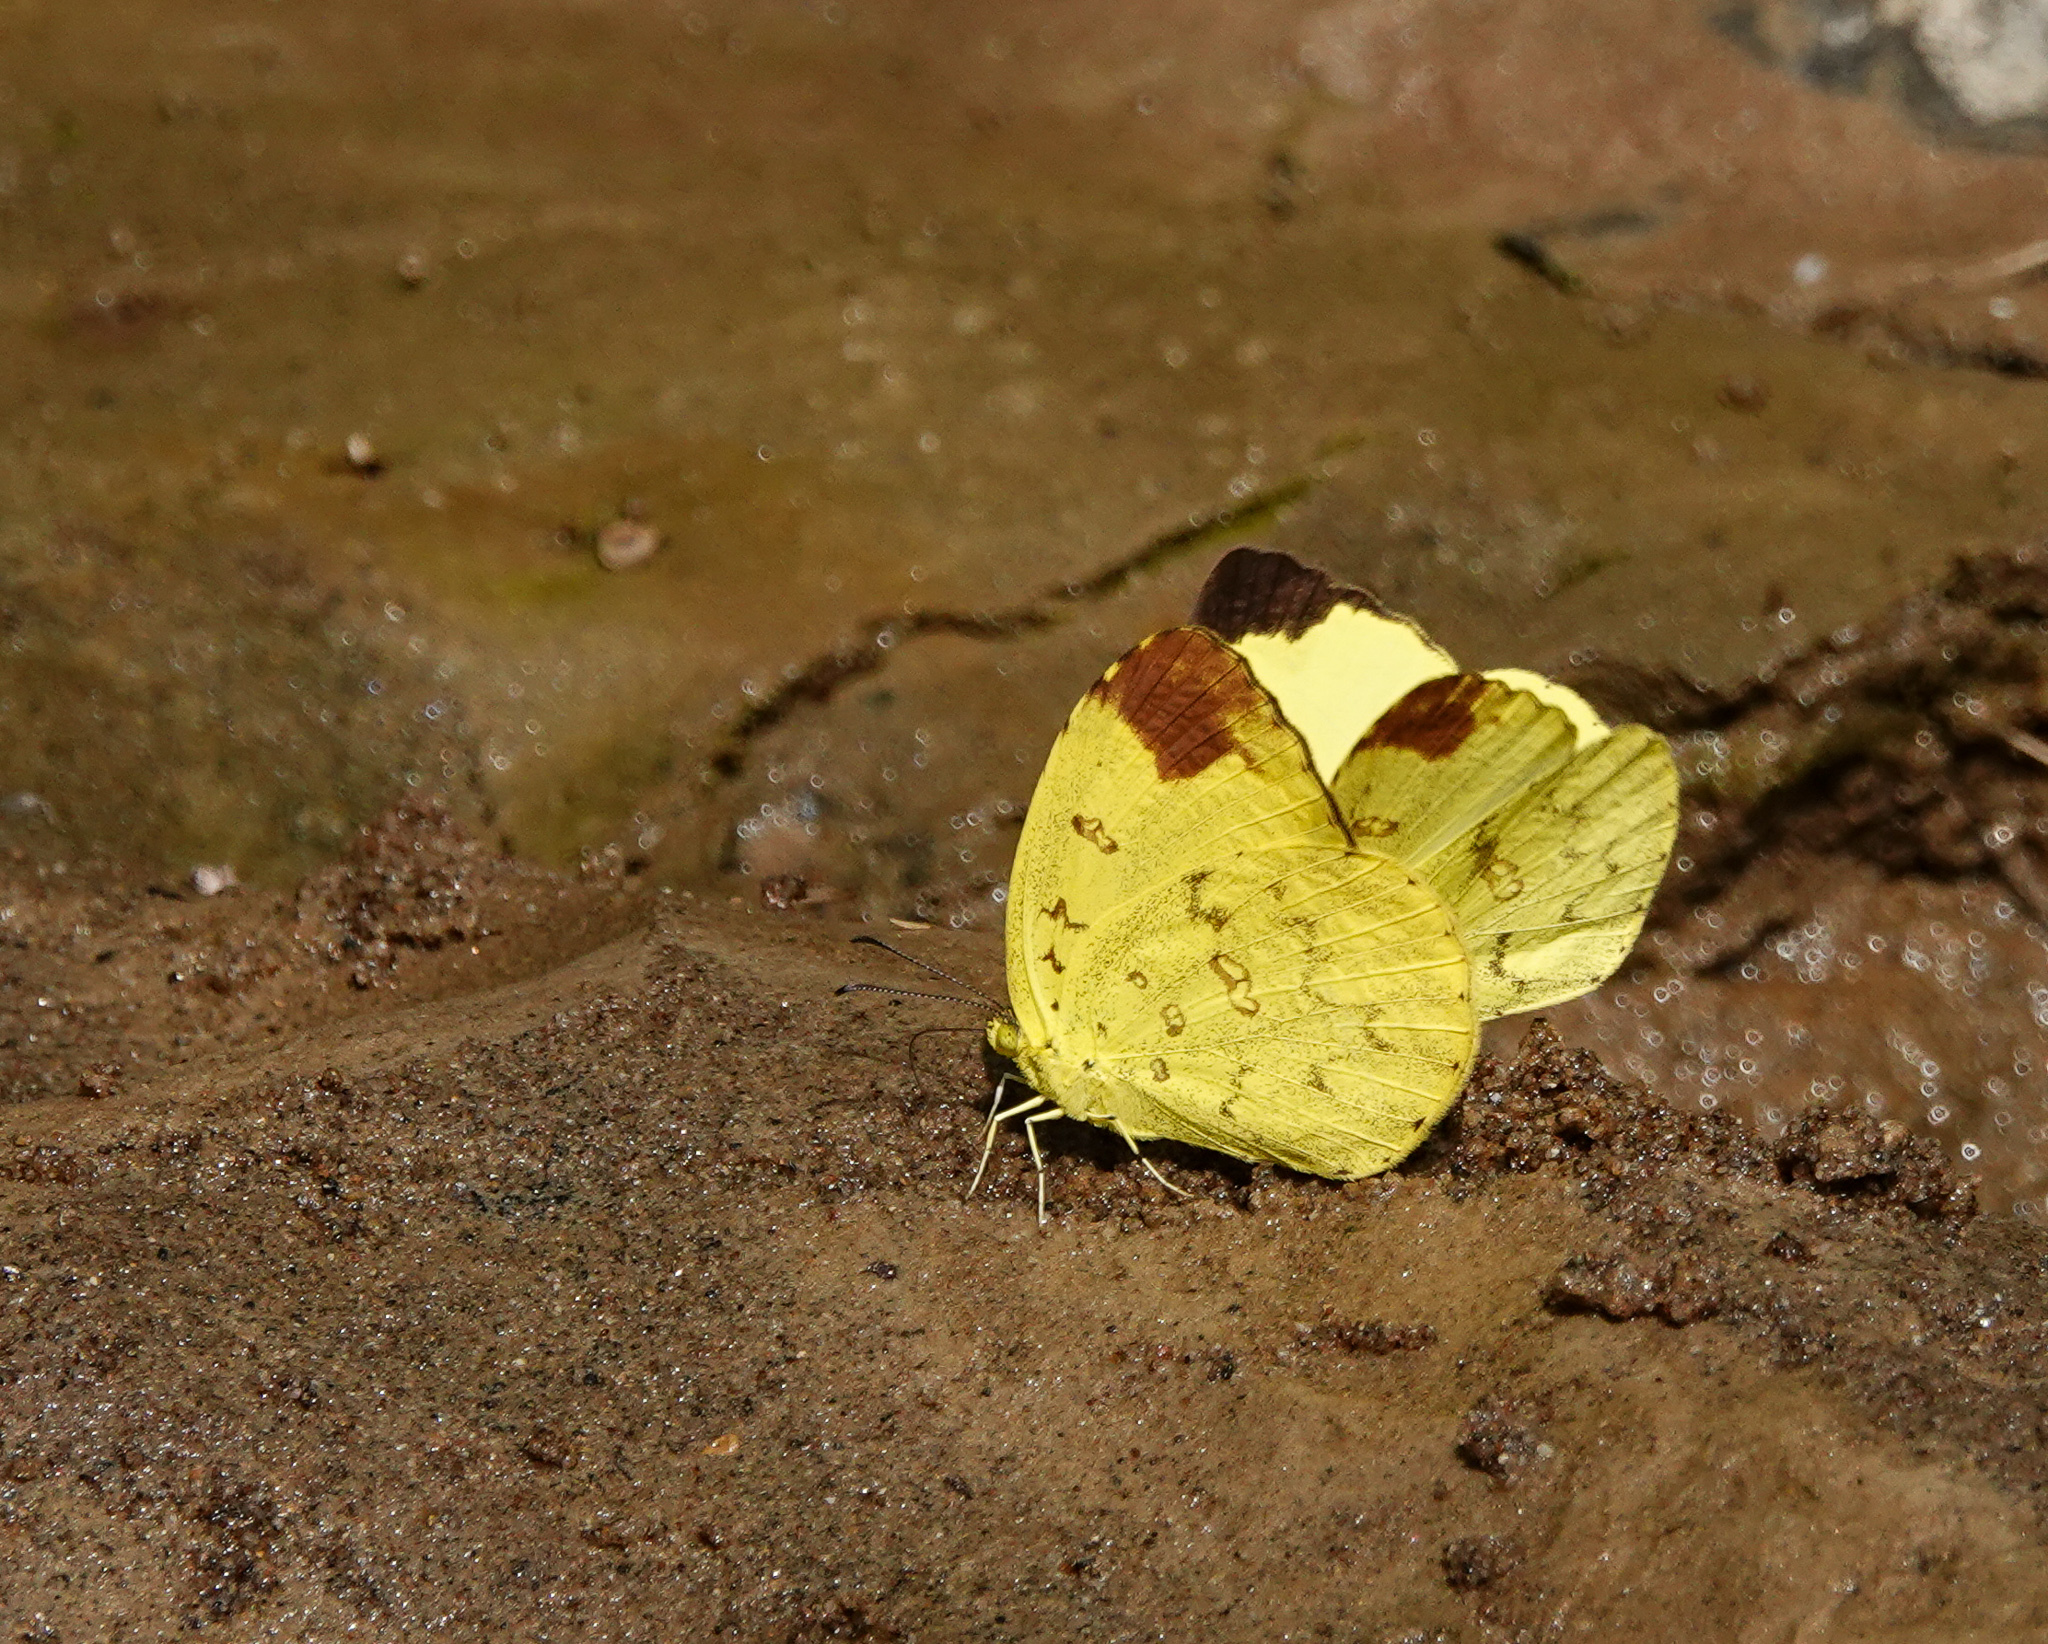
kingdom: Animalia
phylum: Arthropoda
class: Insecta
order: Lepidoptera
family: Pieridae
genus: Eurema
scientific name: Eurema blanda
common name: Three-spot grass yellow
